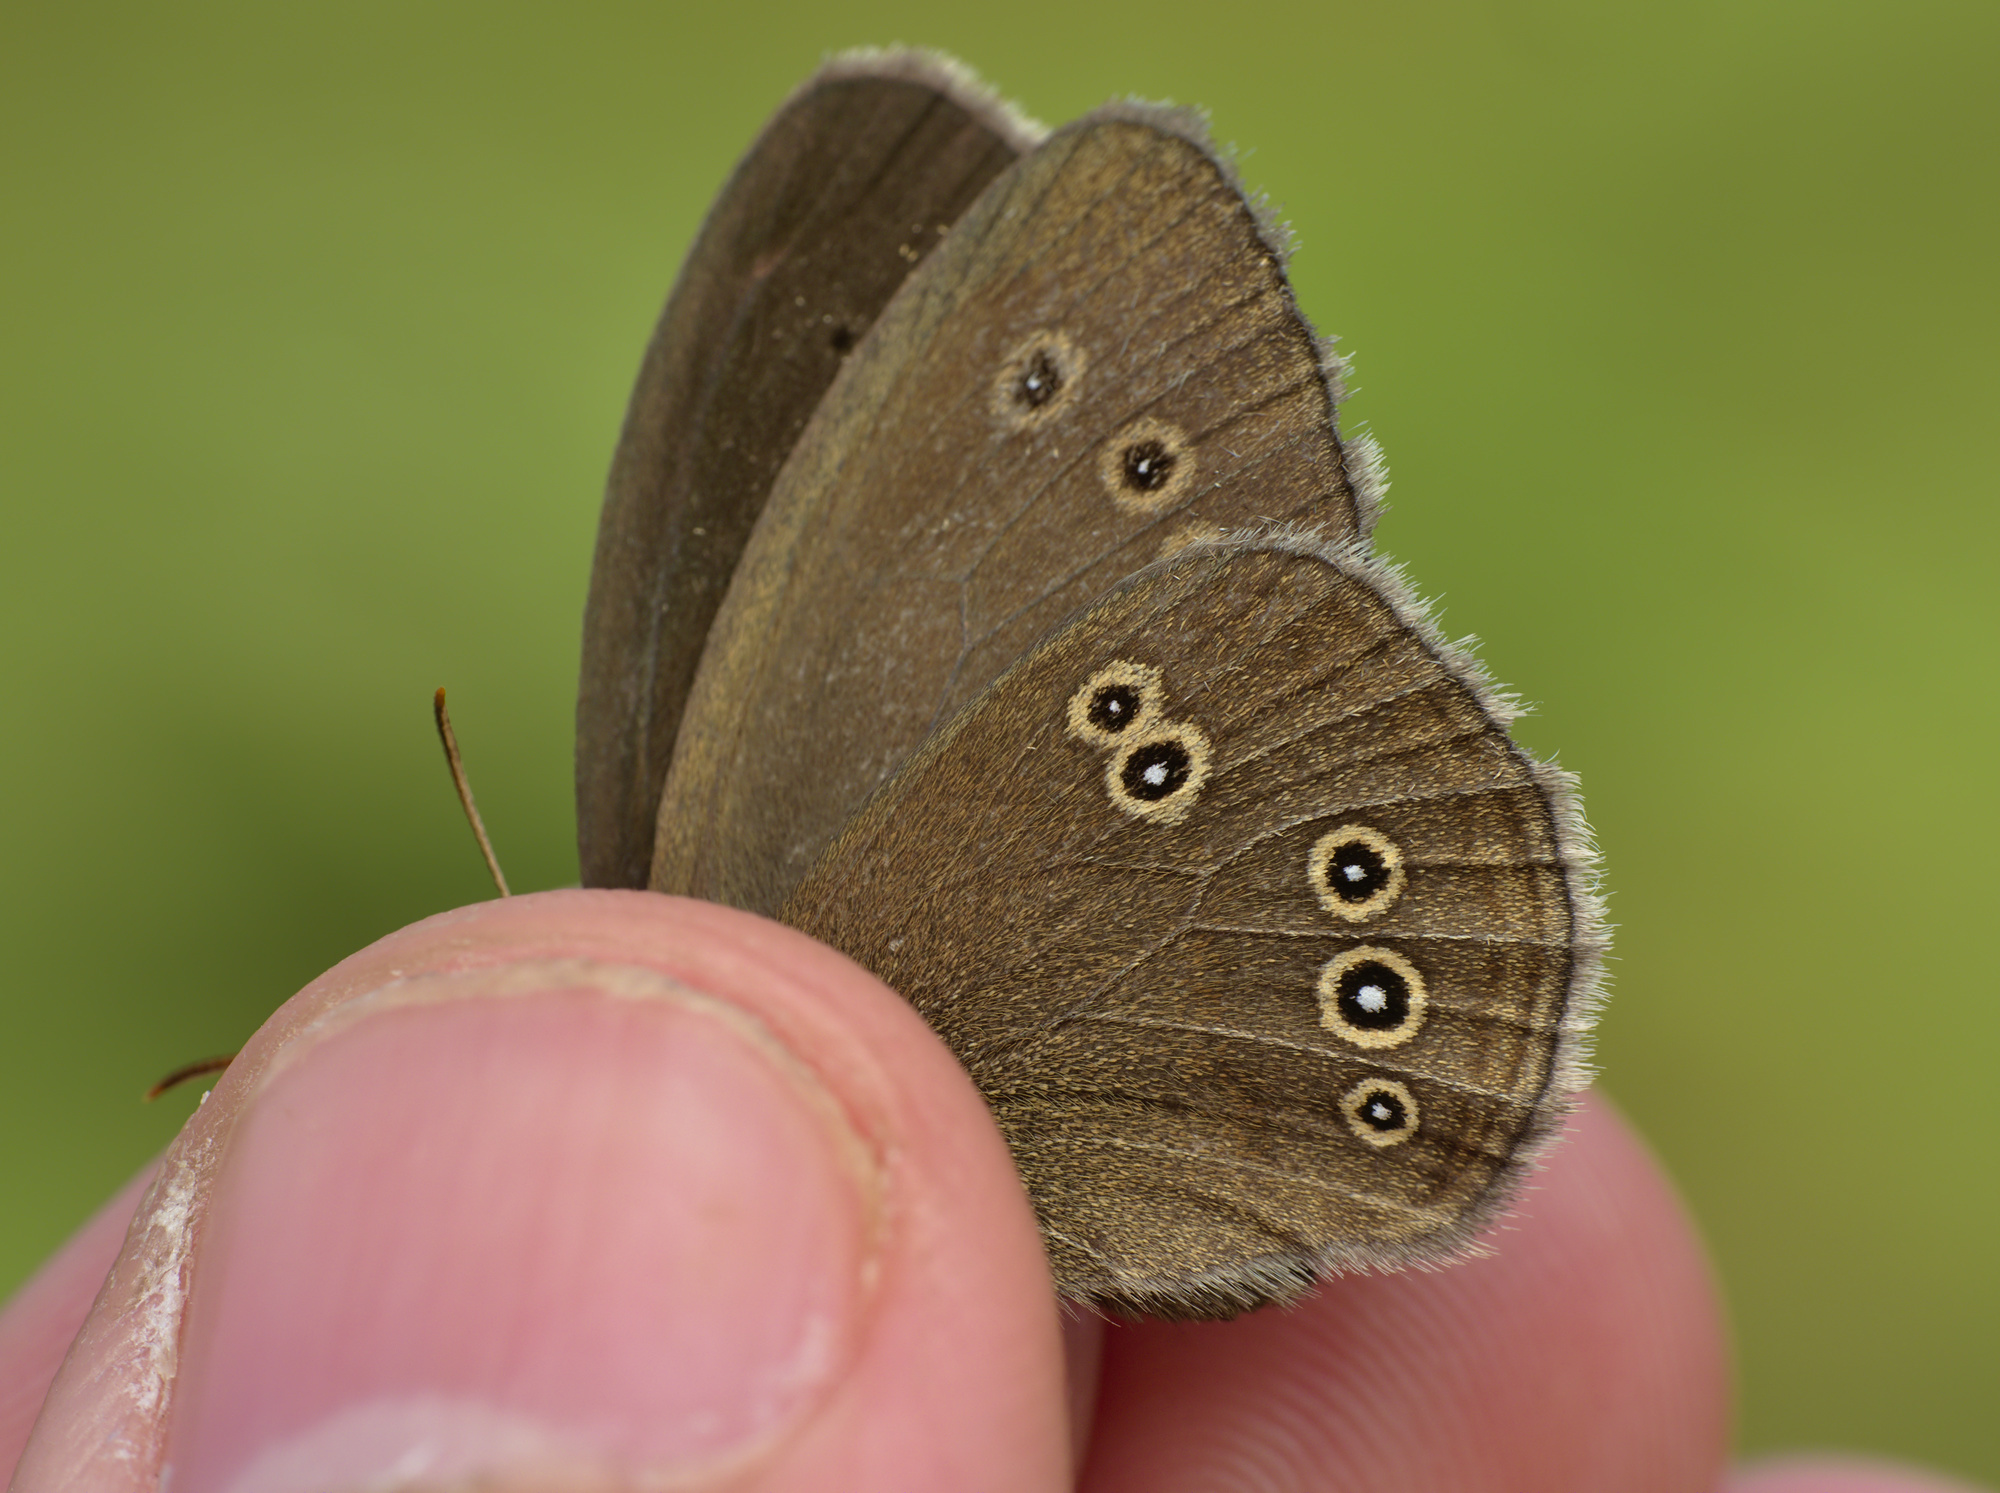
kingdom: Animalia
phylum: Arthropoda
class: Insecta
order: Lepidoptera
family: Nymphalidae
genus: Aphantopus
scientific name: Aphantopus hyperantus
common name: Ringlet
